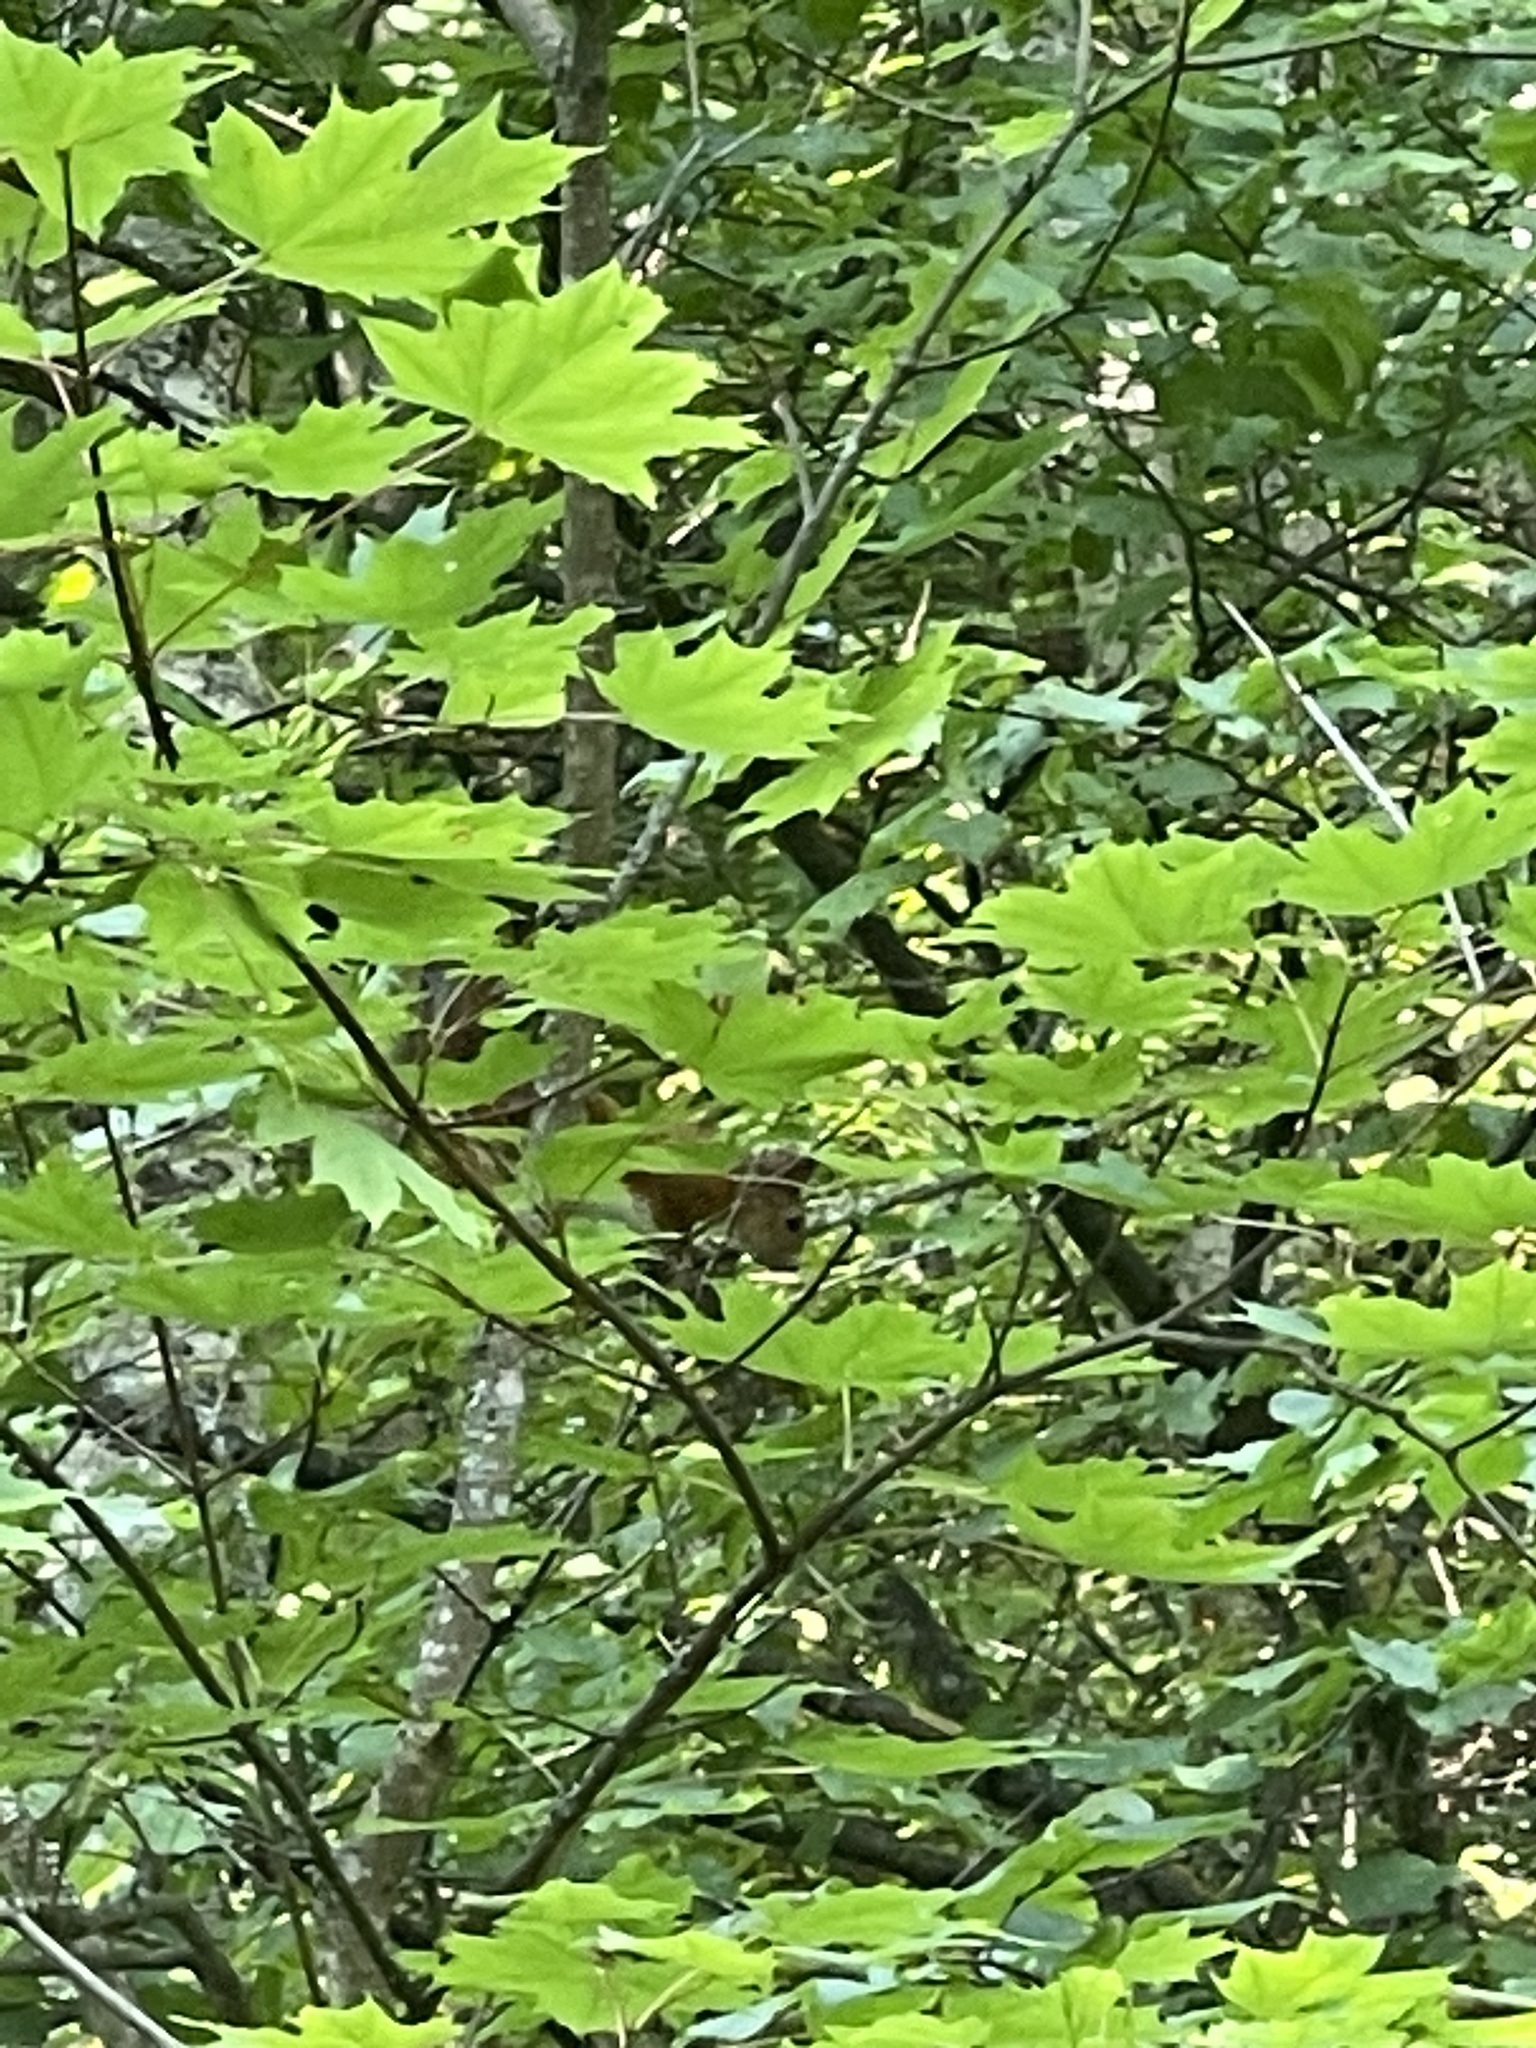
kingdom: Animalia
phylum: Chordata
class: Mammalia
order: Rodentia
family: Sciuridae
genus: Sciurus
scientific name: Sciurus vulgaris
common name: Eurasian red squirrel
